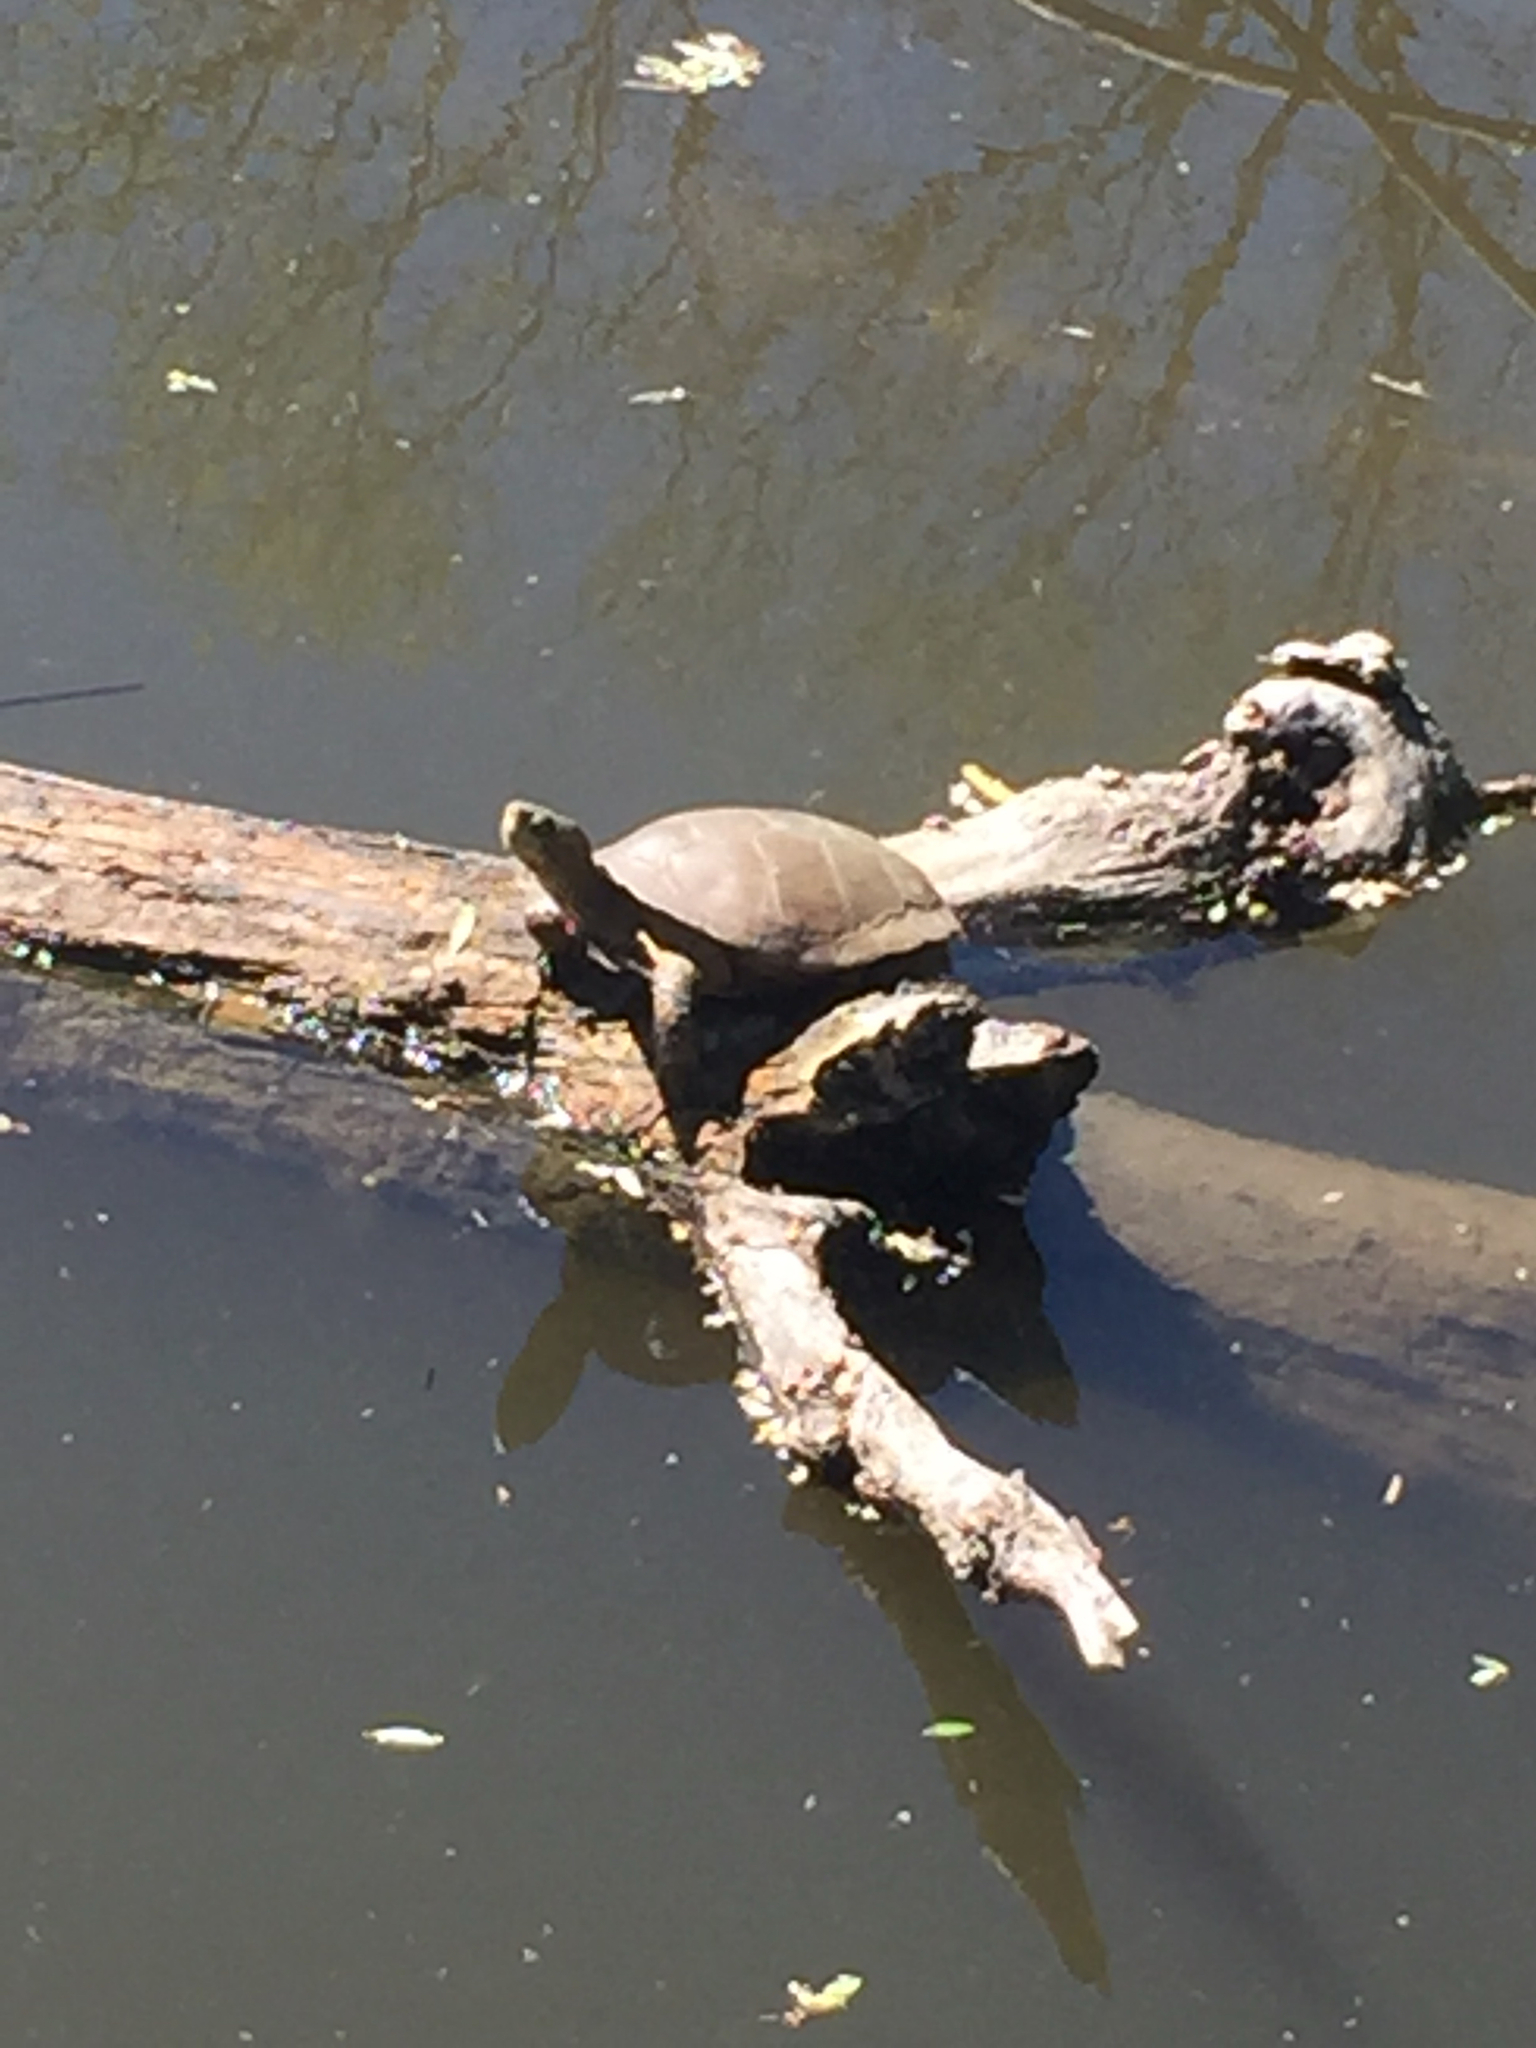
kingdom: Animalia
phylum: Chordata
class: Testudines
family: Emydidae
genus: Actinemys
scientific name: Actinemys marmorata
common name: Western pond turtle
